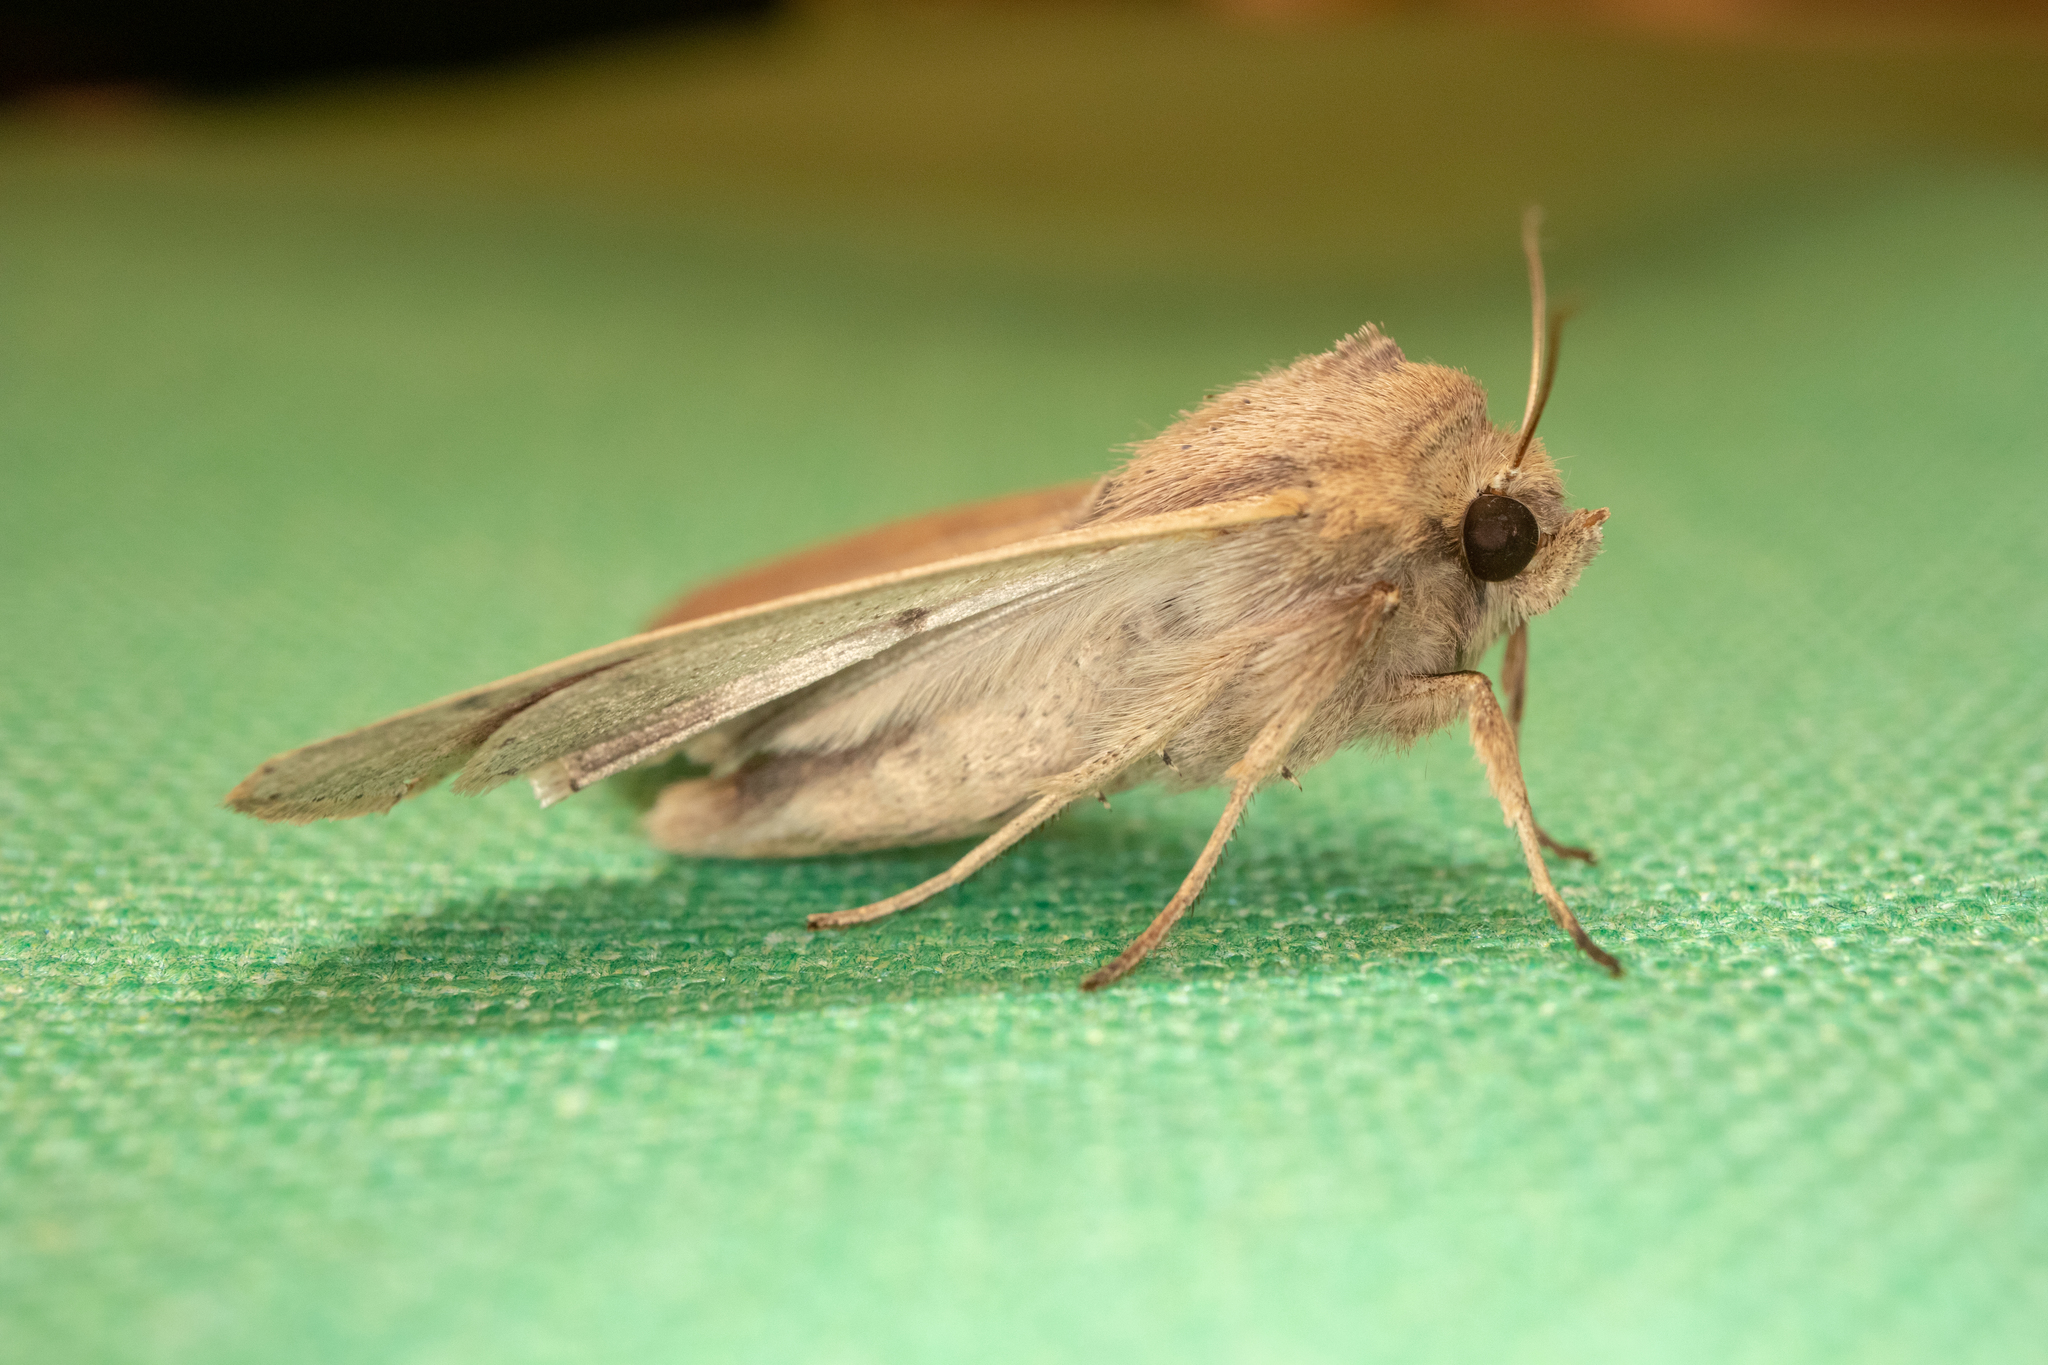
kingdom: Animalia
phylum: Arthropoda
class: Insecta
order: Lepidoptera
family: Noctuidae
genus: Mythimna
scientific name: Mythimna unipuncta
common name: White-speck
